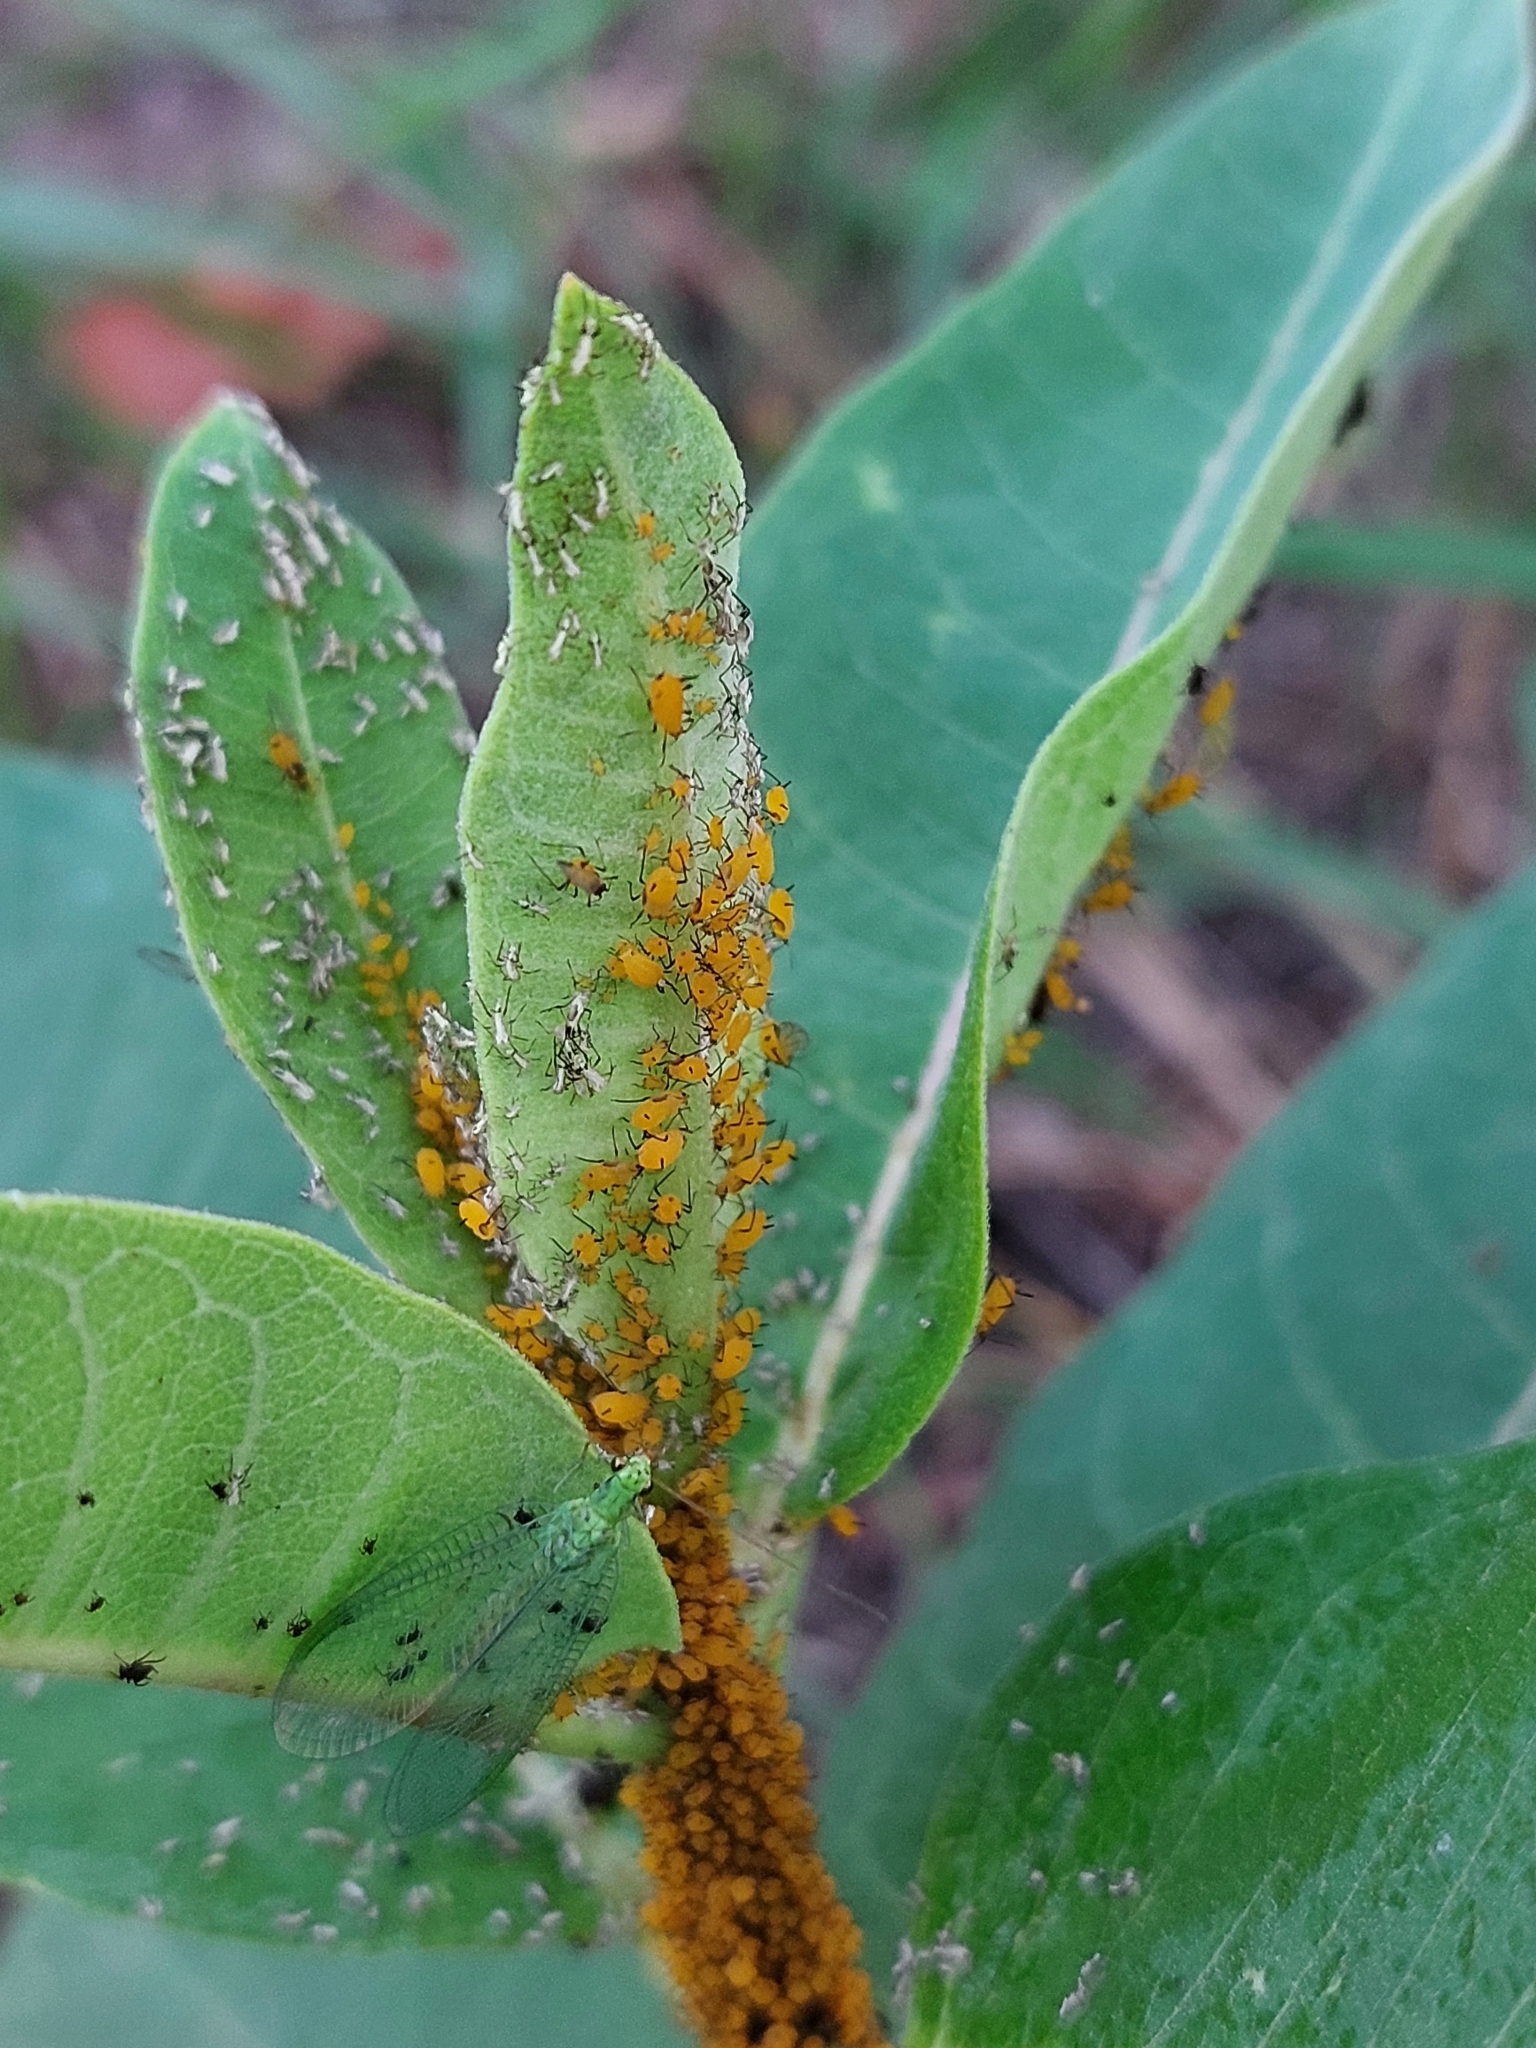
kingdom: Animalia
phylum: Arthropoda
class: Insecta
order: Hemiptera
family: Aphididae
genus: Aphis
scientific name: Aphis nerii
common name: Oleander aphid
